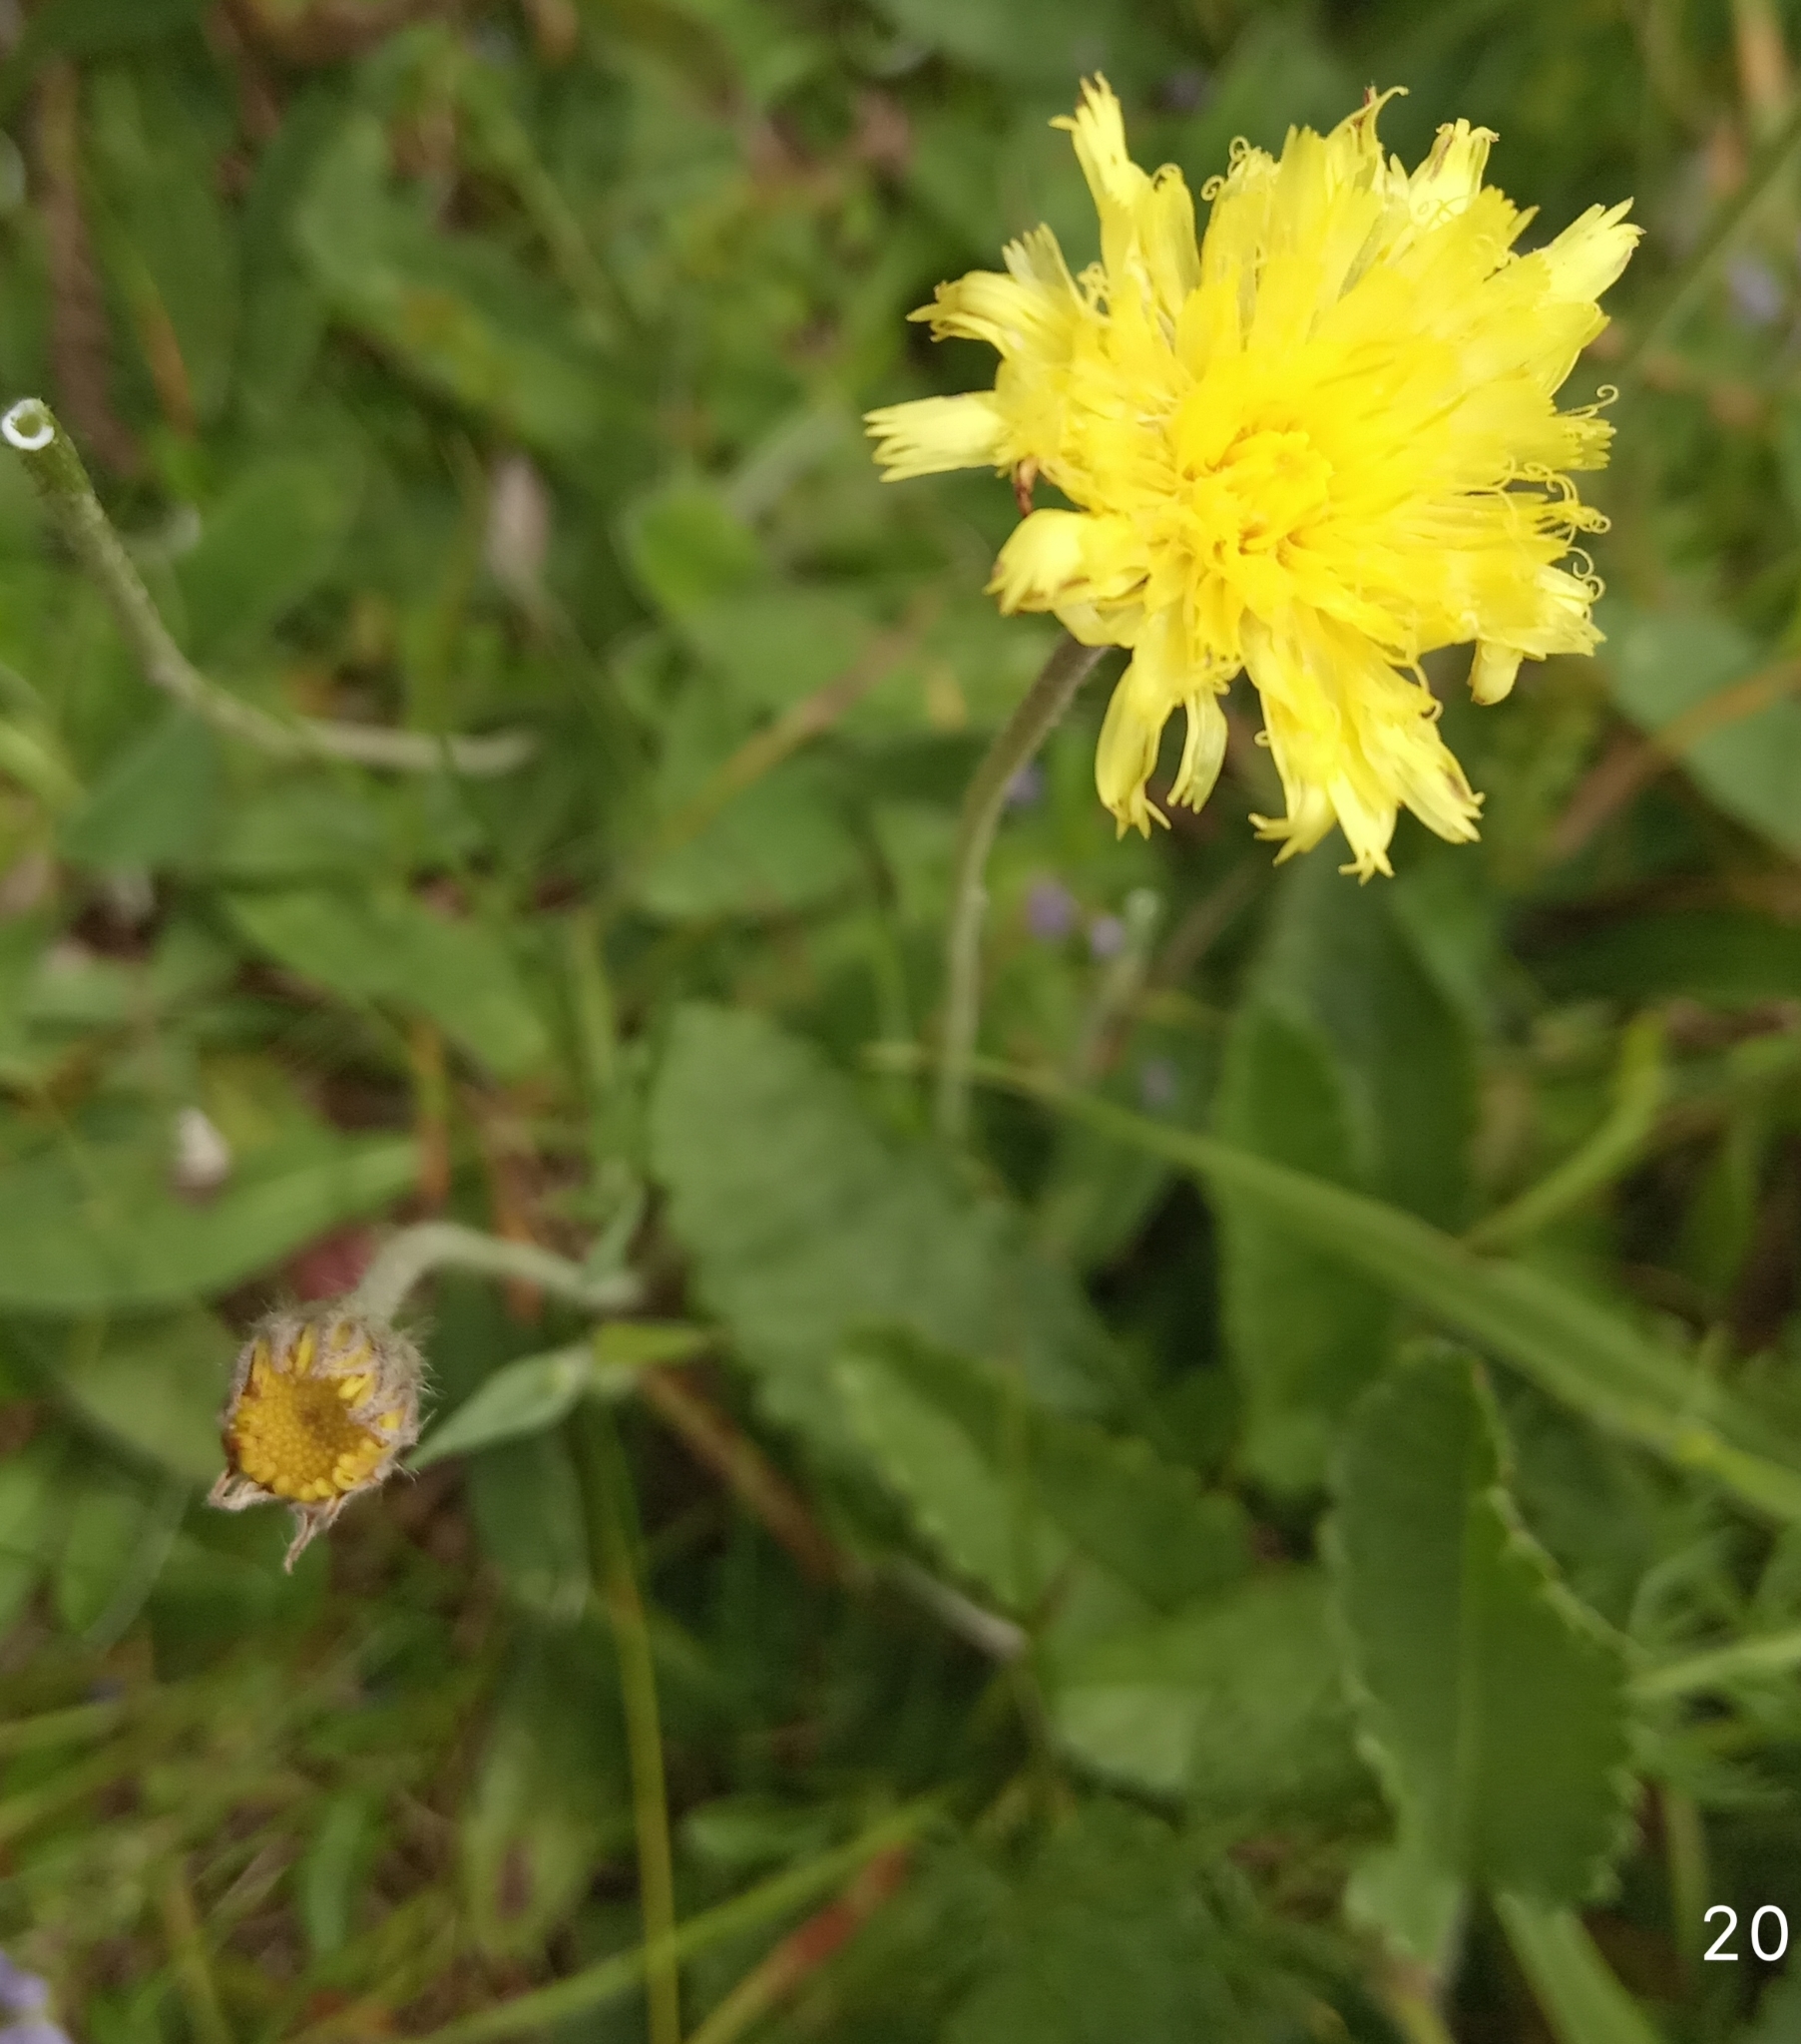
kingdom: Plantae
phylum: Tracheophyta
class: Magnoliopsida
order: Asterales
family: Asteraceae
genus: Pilosella
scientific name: Pilosella officinarum
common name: Mouse-ear hawkweed
